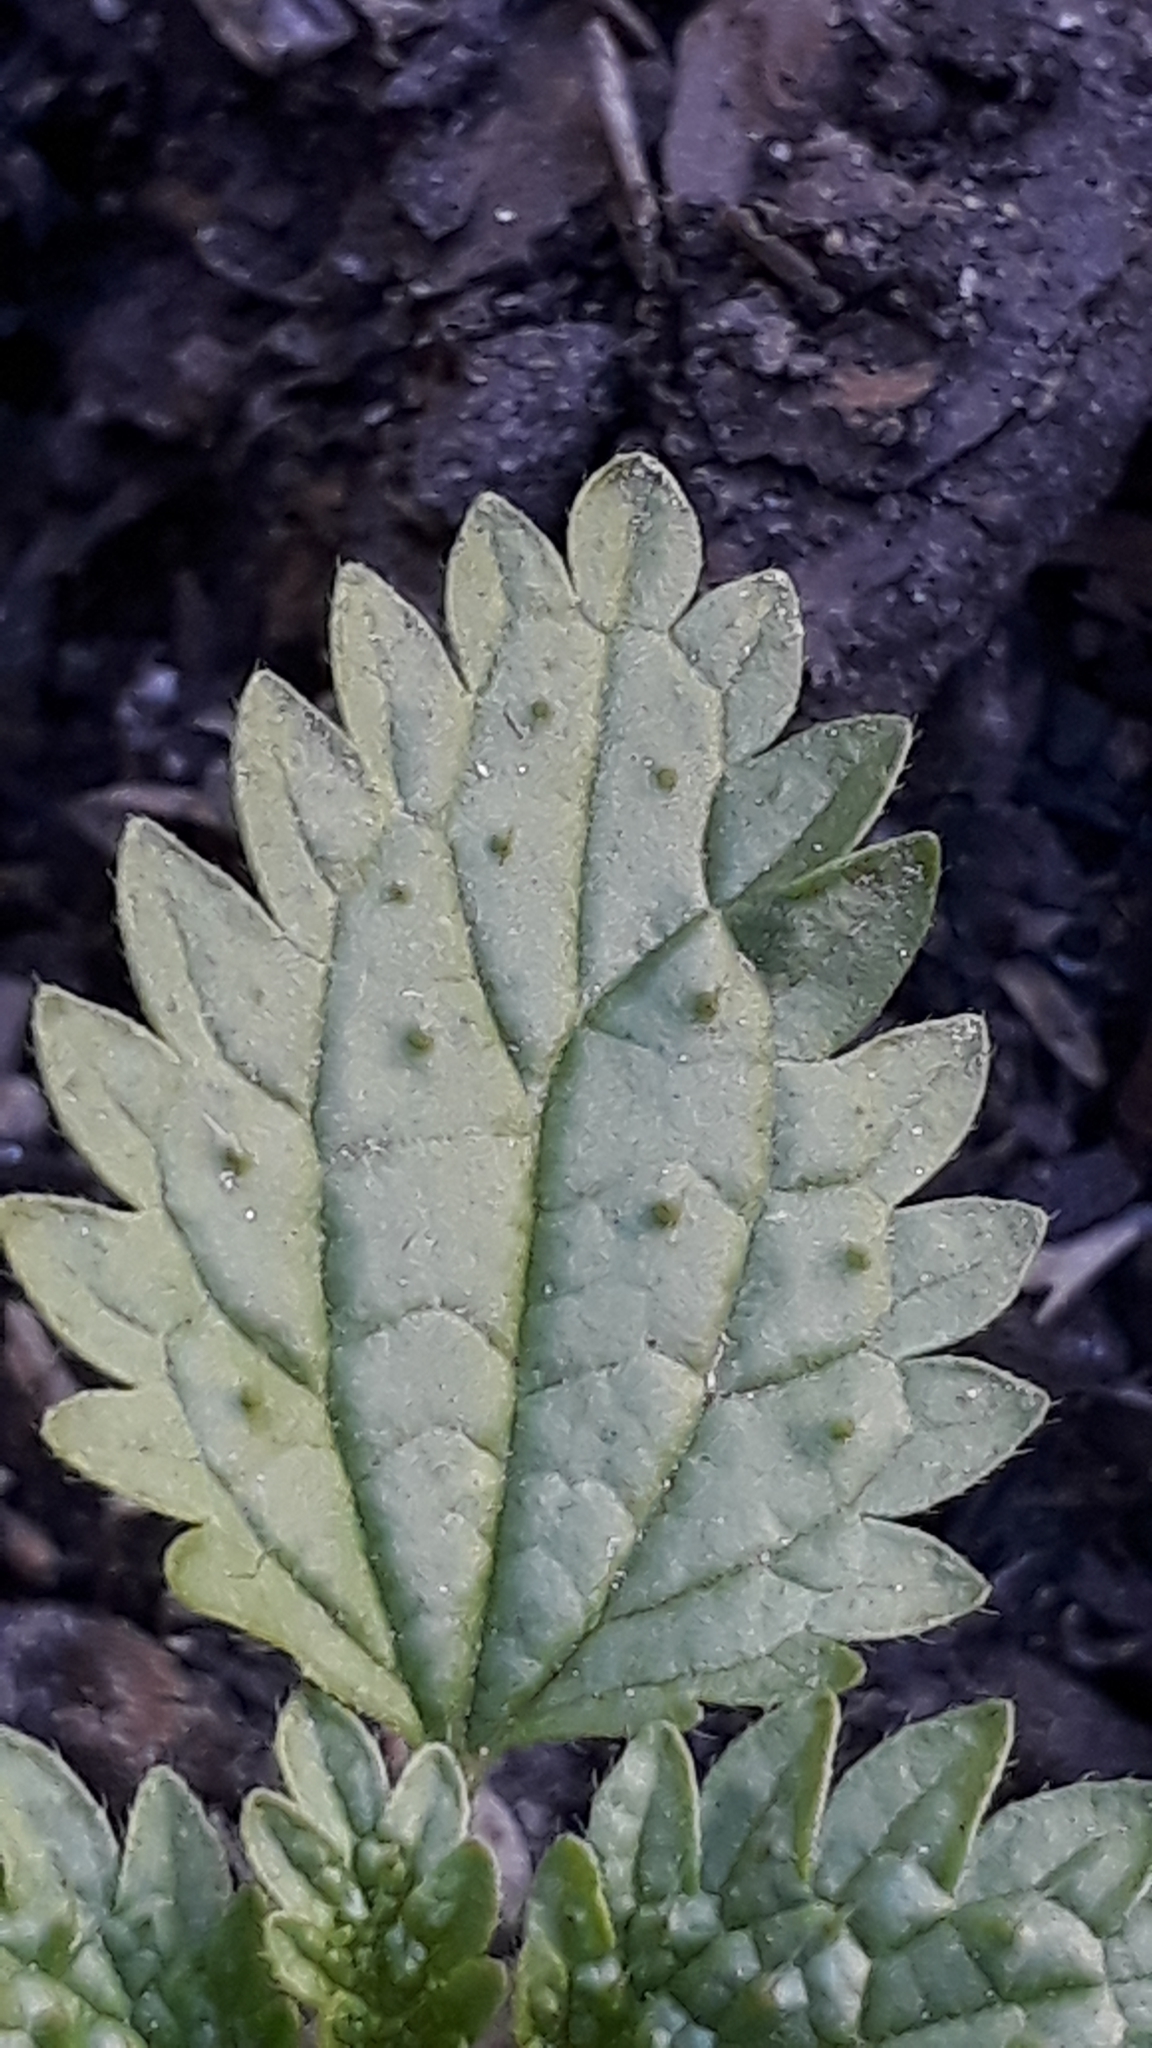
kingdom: Plantae
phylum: Tracheophyta
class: Magnoliopsida
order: Rosales
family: Urticaceae
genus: Urtica
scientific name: Urtica urens
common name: Dwarf nettle
